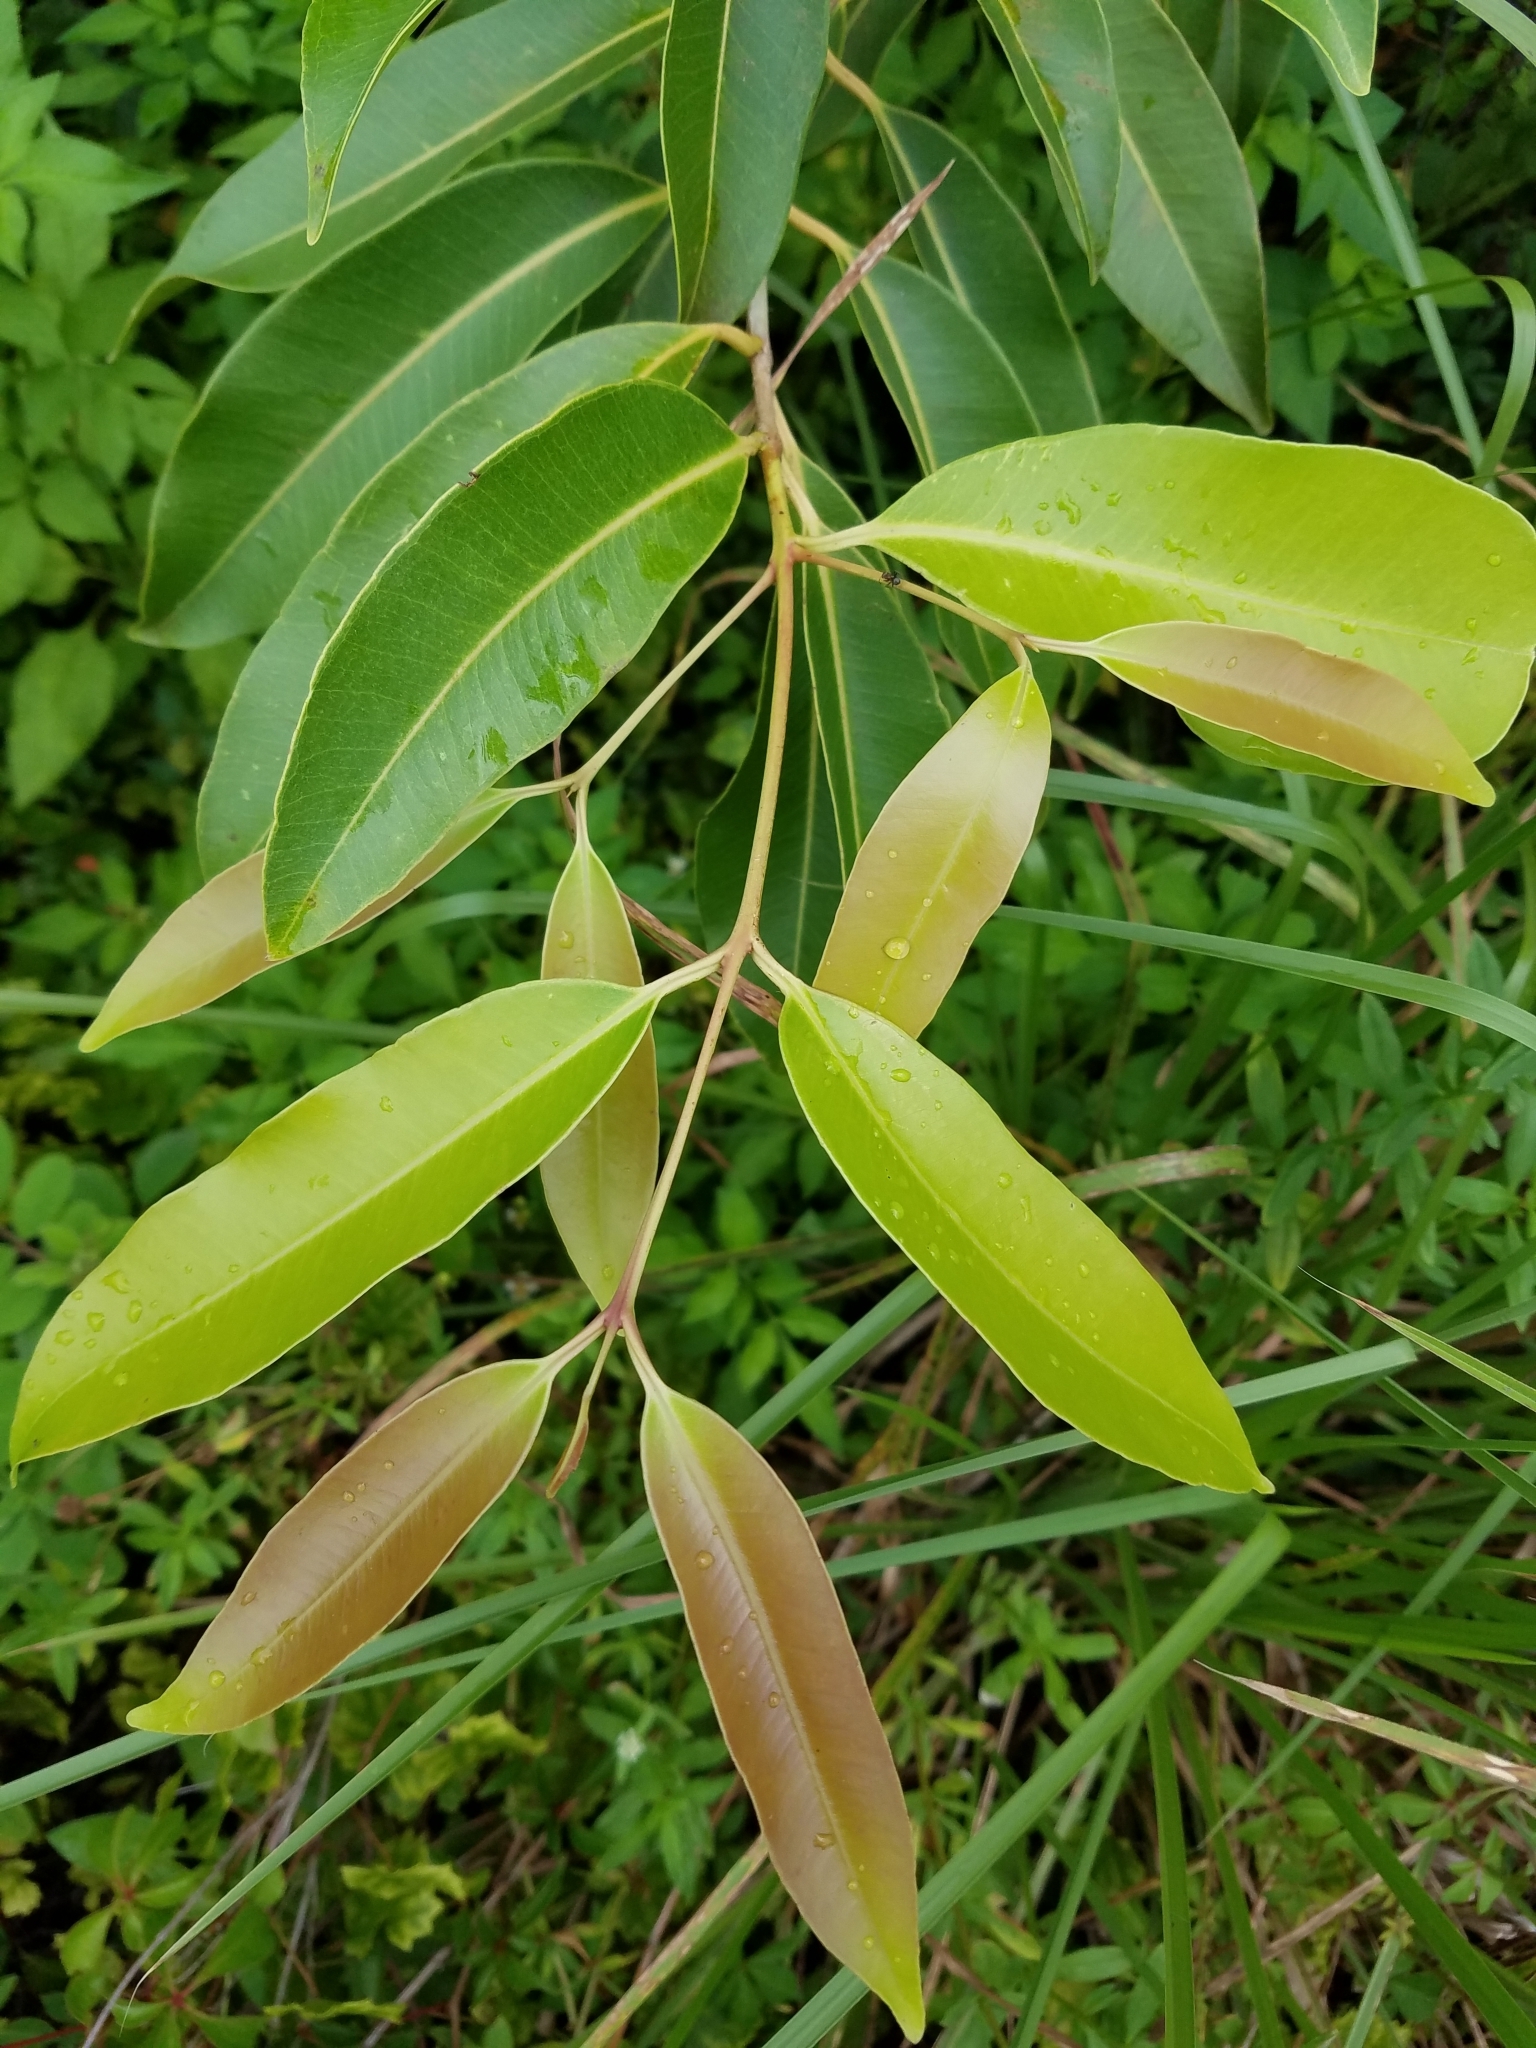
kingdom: Plantae
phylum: Tracheophyta
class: Magnoliopsida
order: Myrtales
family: Myrtaceae
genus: Syzygium
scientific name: Syzygium cumini
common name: Java plum
